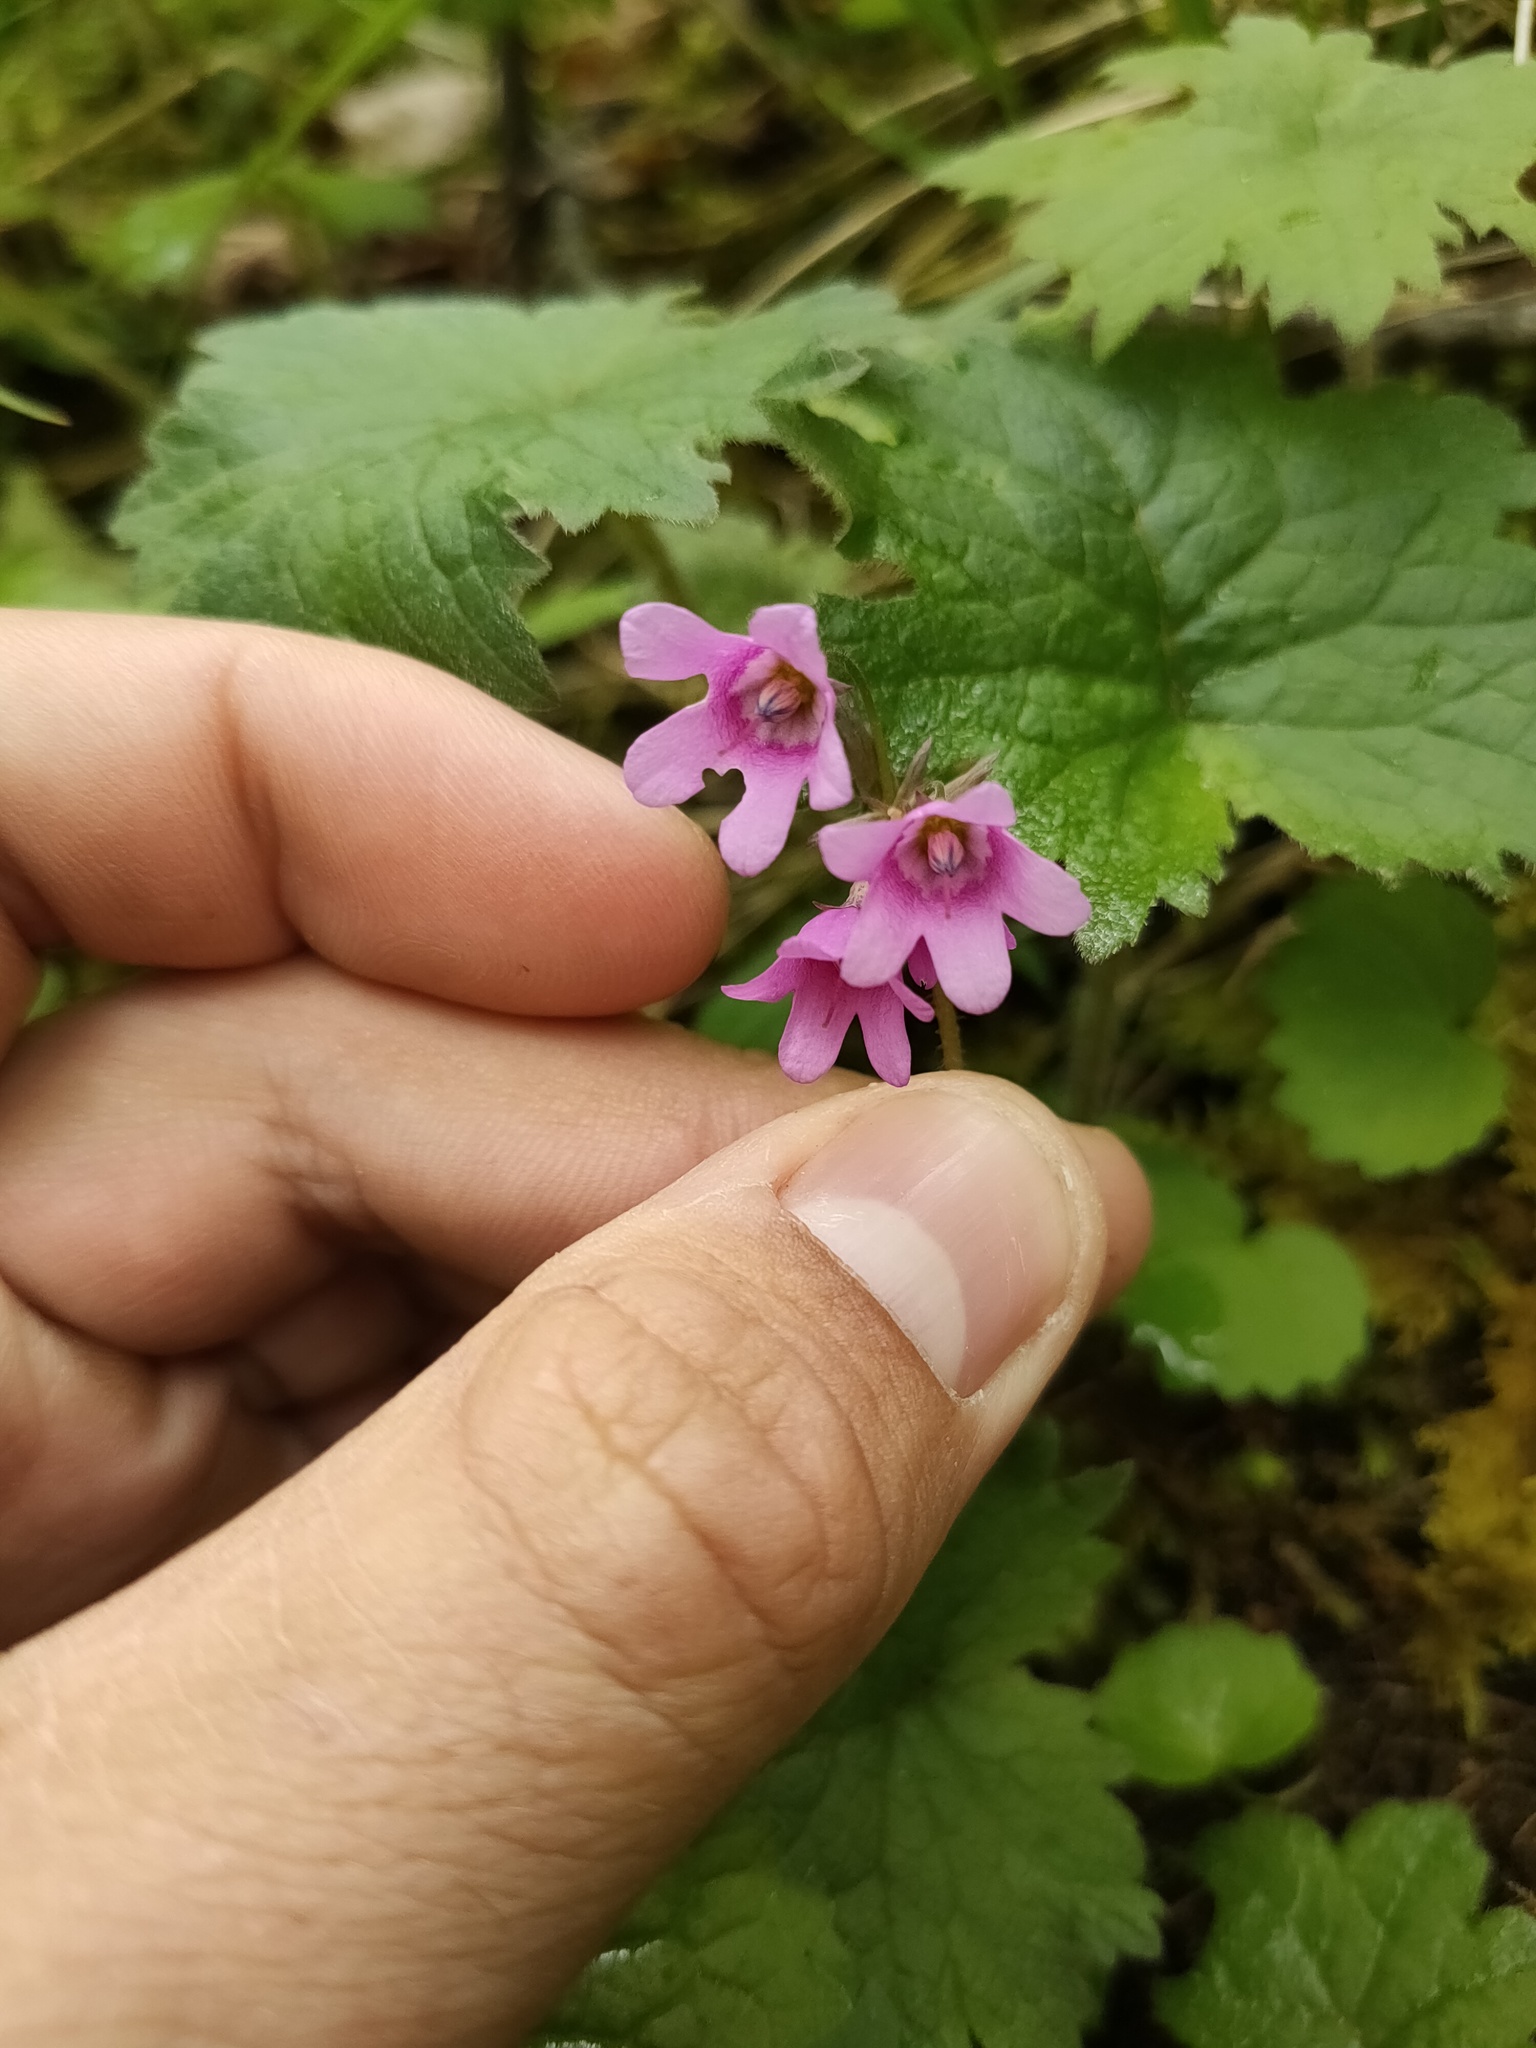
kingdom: Plantae
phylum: Tracheophyta
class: Magnoliopsida
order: Ericales
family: Primulaceae
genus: Primula
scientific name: Primula matthioli
